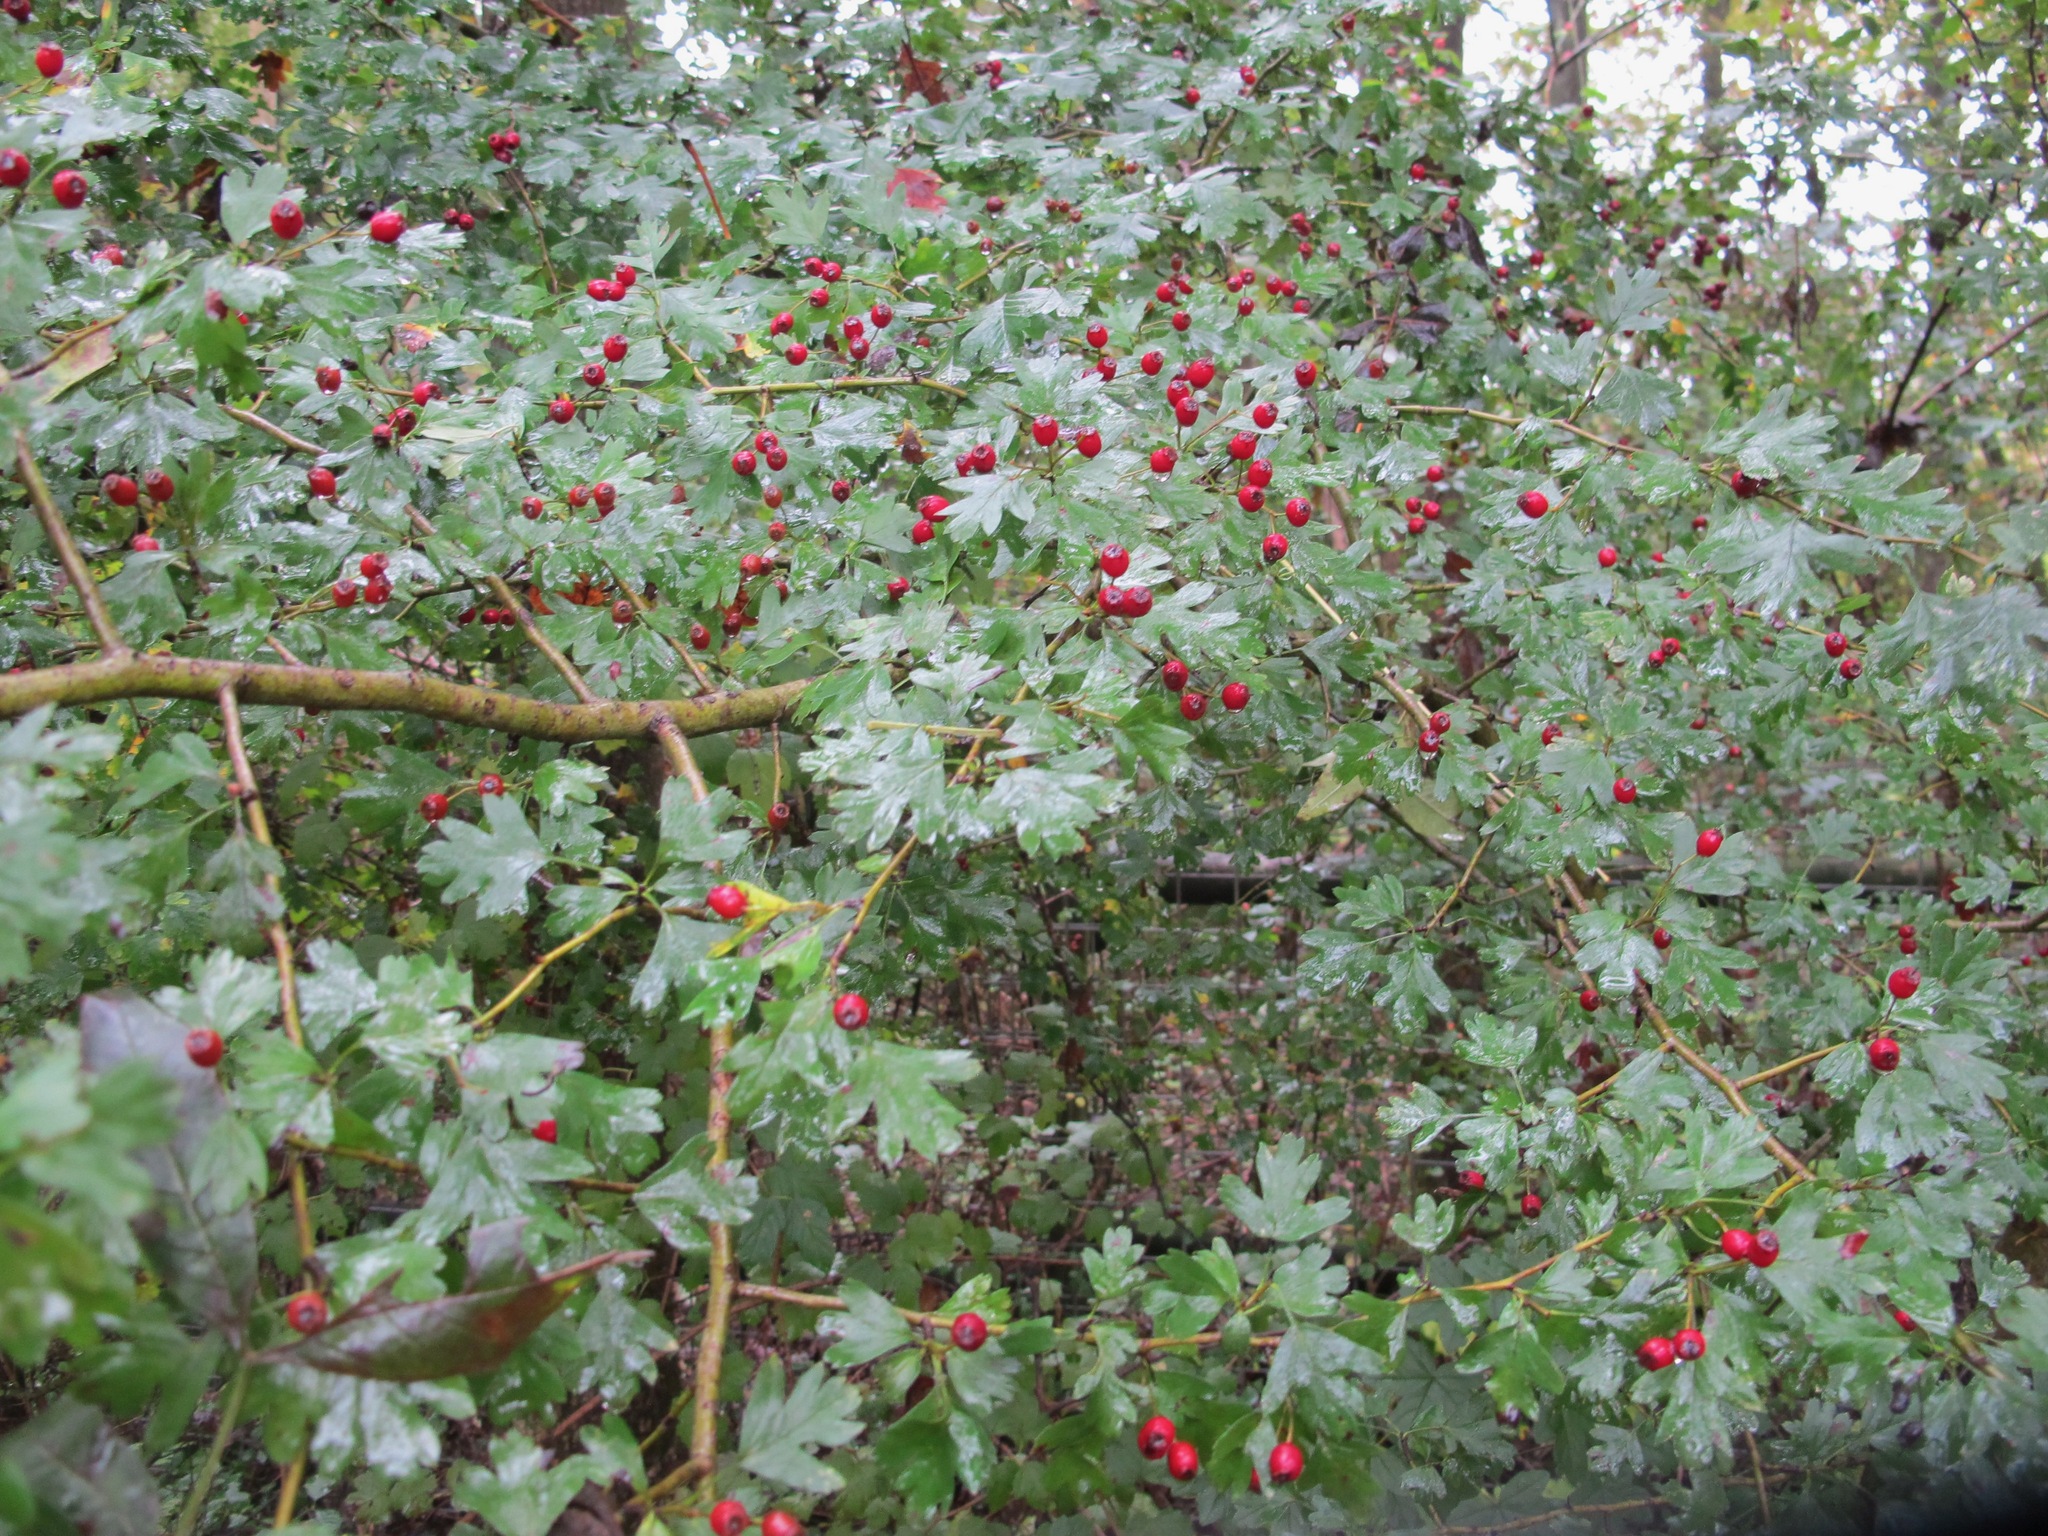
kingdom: Plantae
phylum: Tracheophyta
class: Magnoliopsida
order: Rosales
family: Rosaceae
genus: Crataegus
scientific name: Crataegus monogyna
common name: Hawthorn
